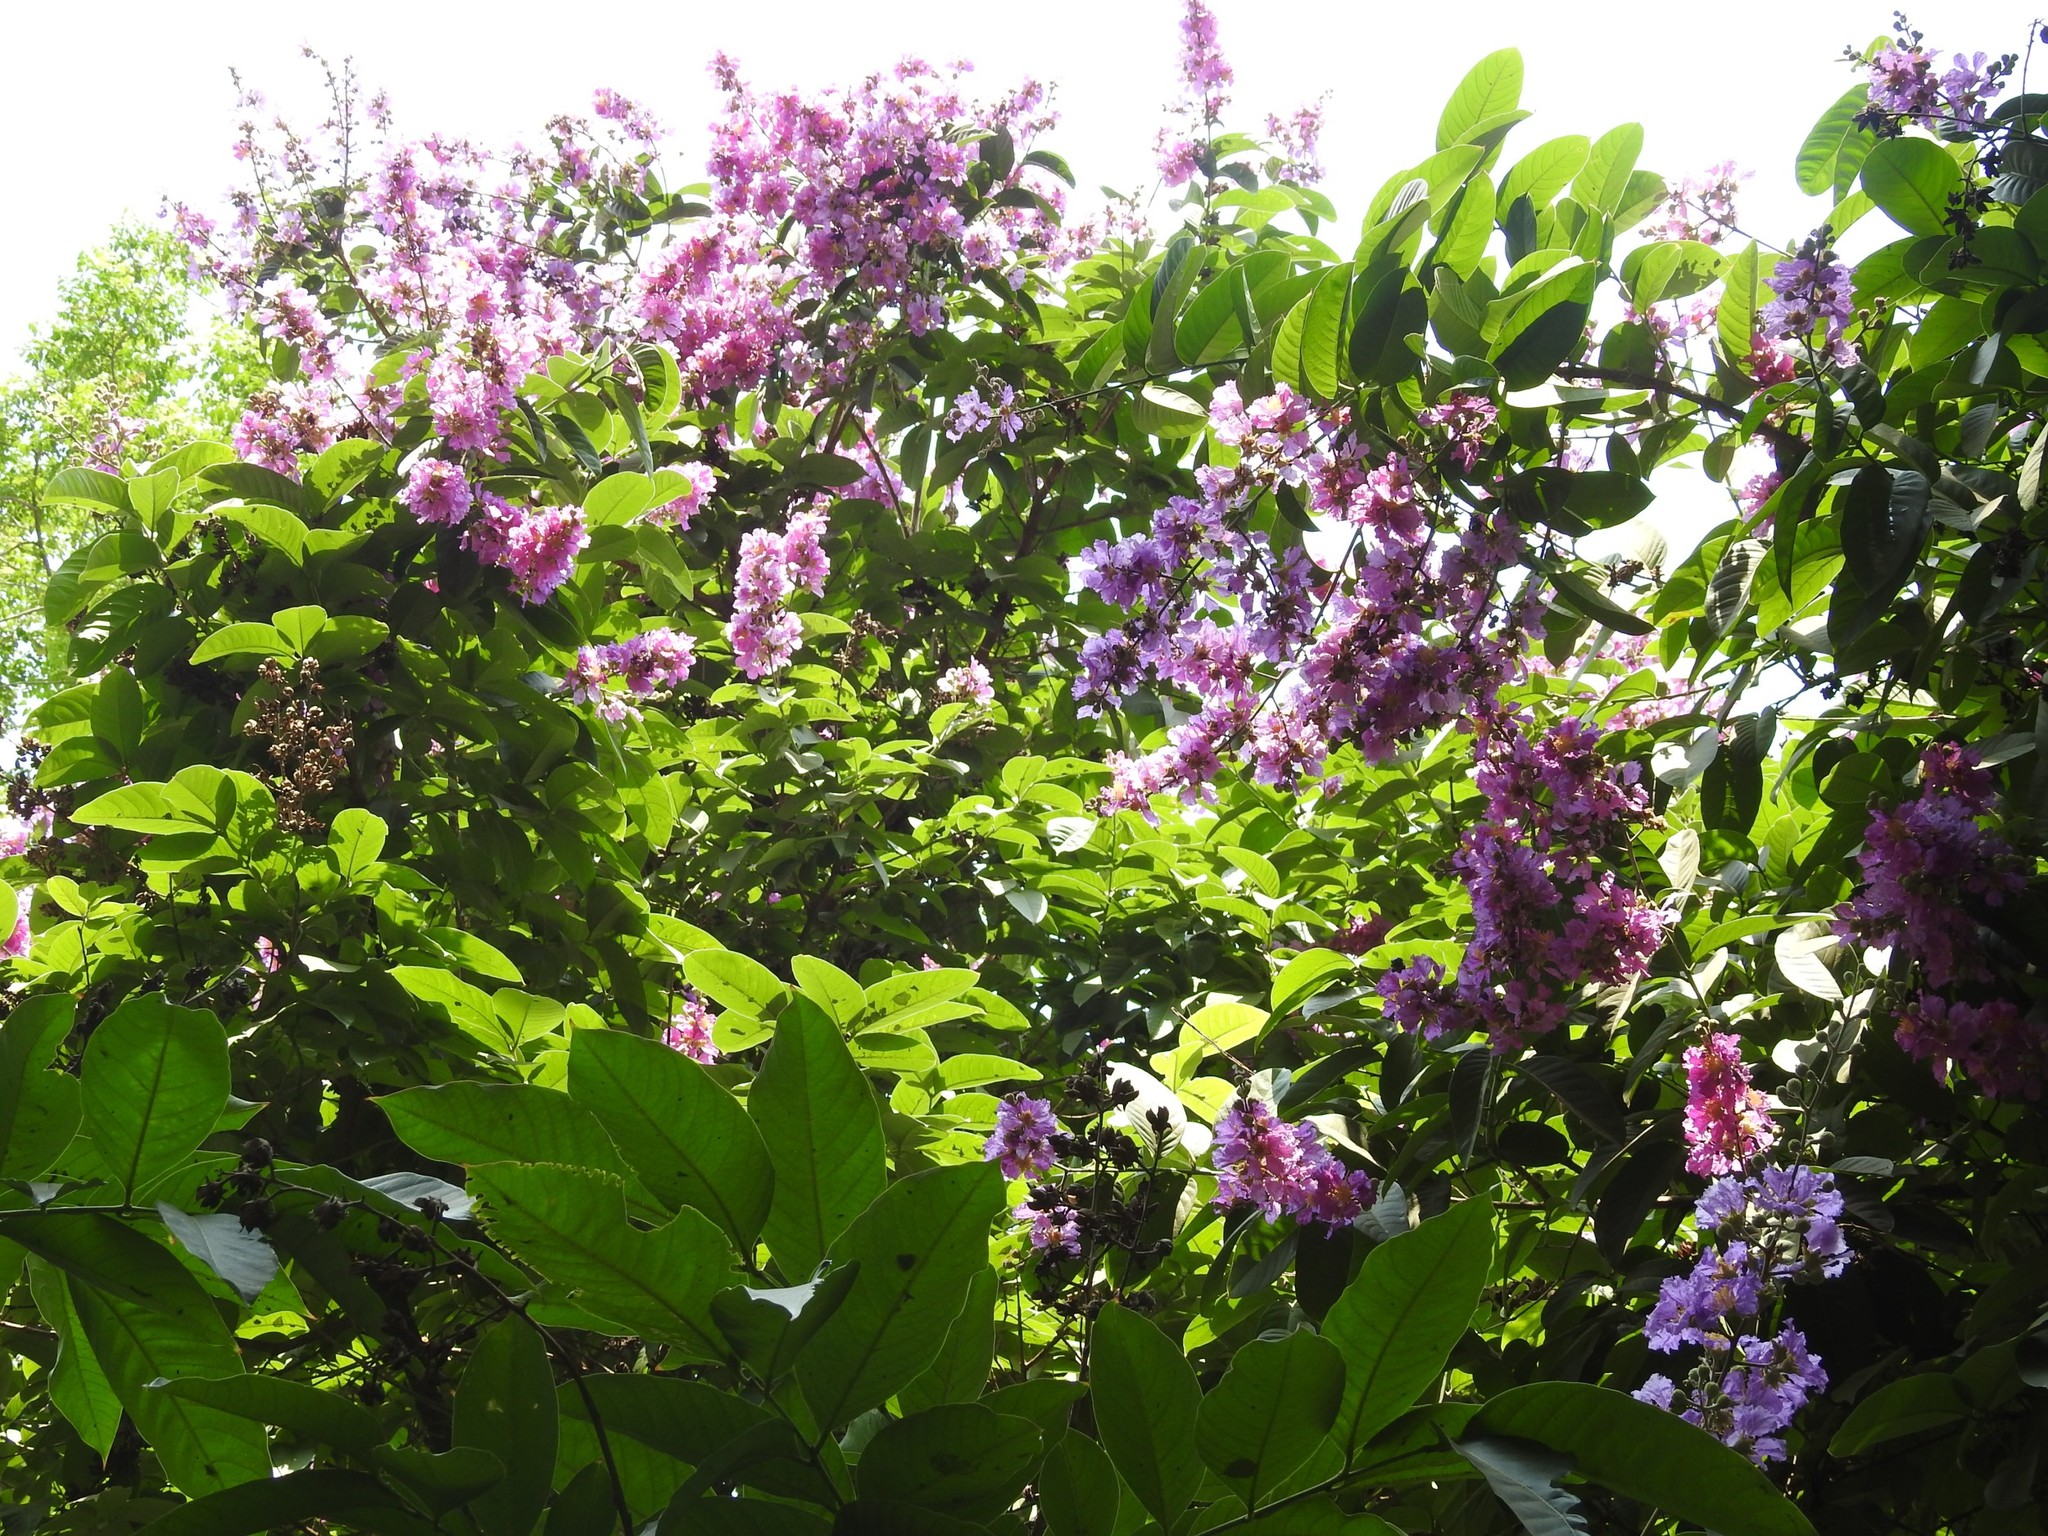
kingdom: Plantae
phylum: Tracheophyta
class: Magnoliopsida
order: Myrtales
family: Lythraceae
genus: Lagerstroemia
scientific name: Lagerstroemia speciosa
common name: Queen's crape-myrtle
